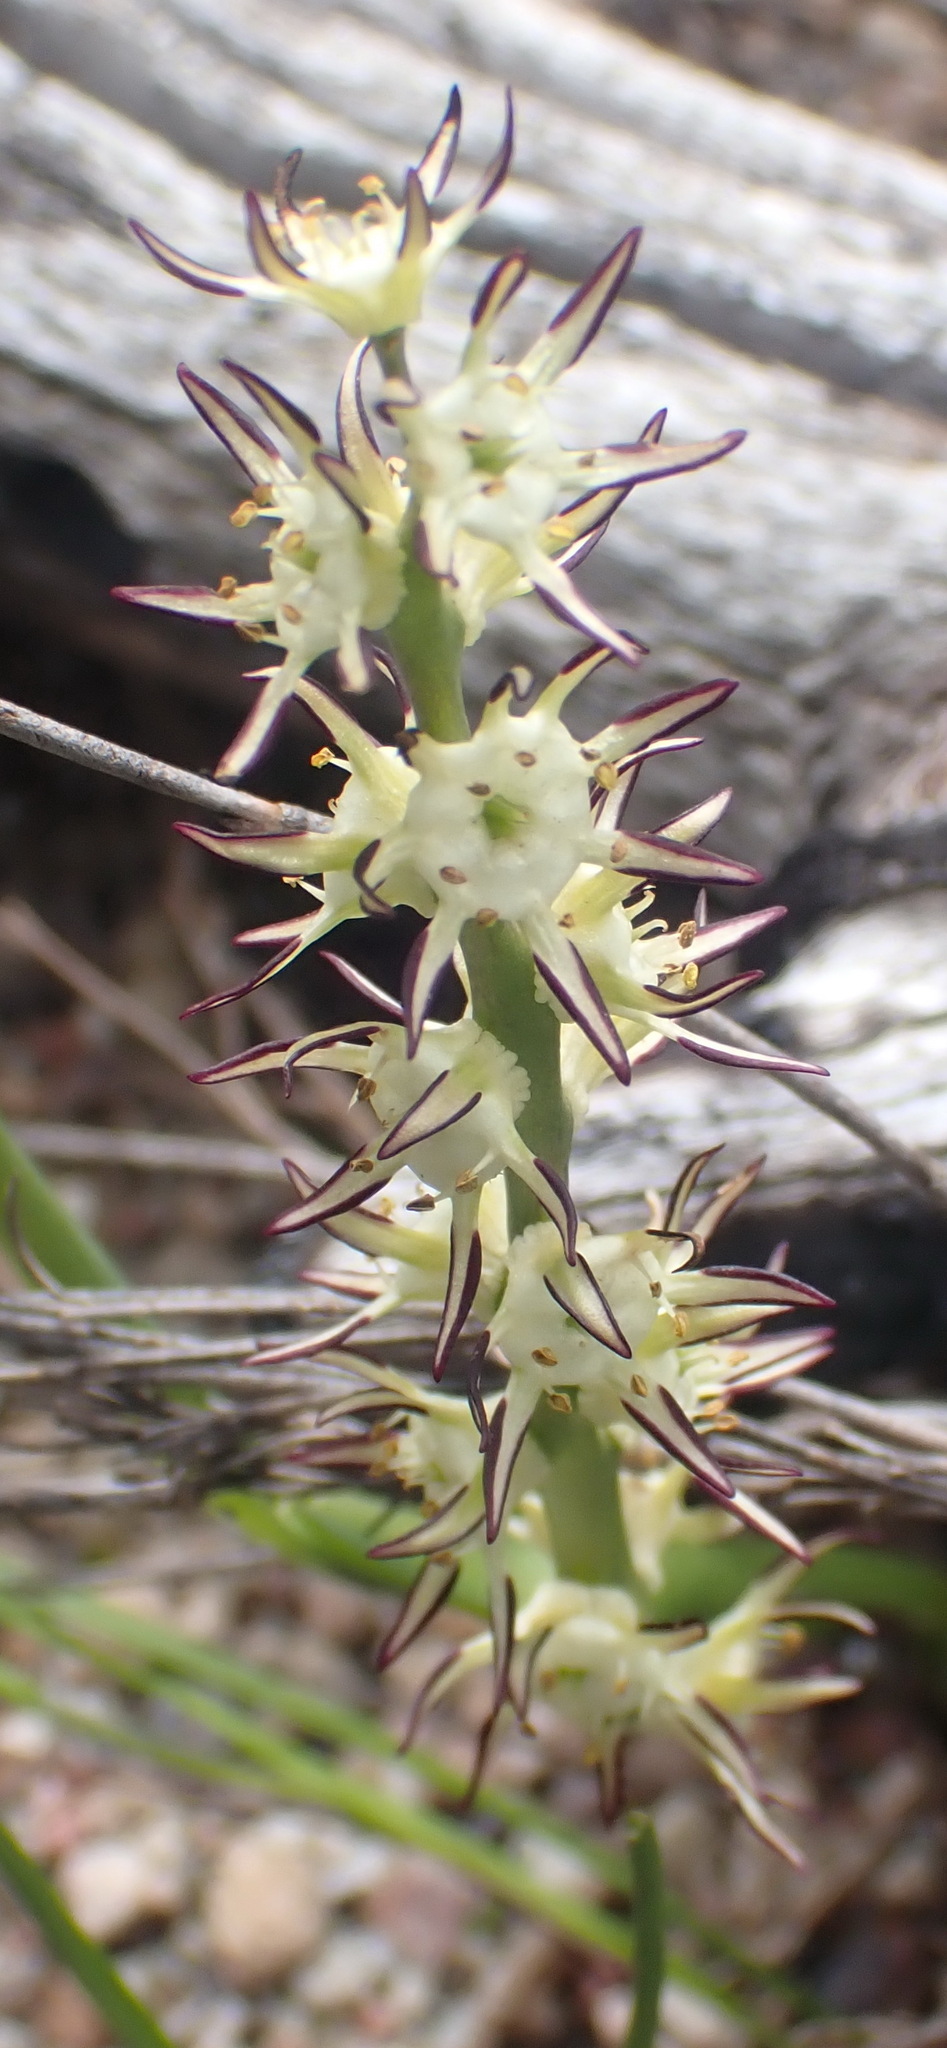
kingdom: Plantae
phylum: Tracheophyta
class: Liliopsida
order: Liliales
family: Colchicaceae
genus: Wurmbea
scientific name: Wurmbea spicata
